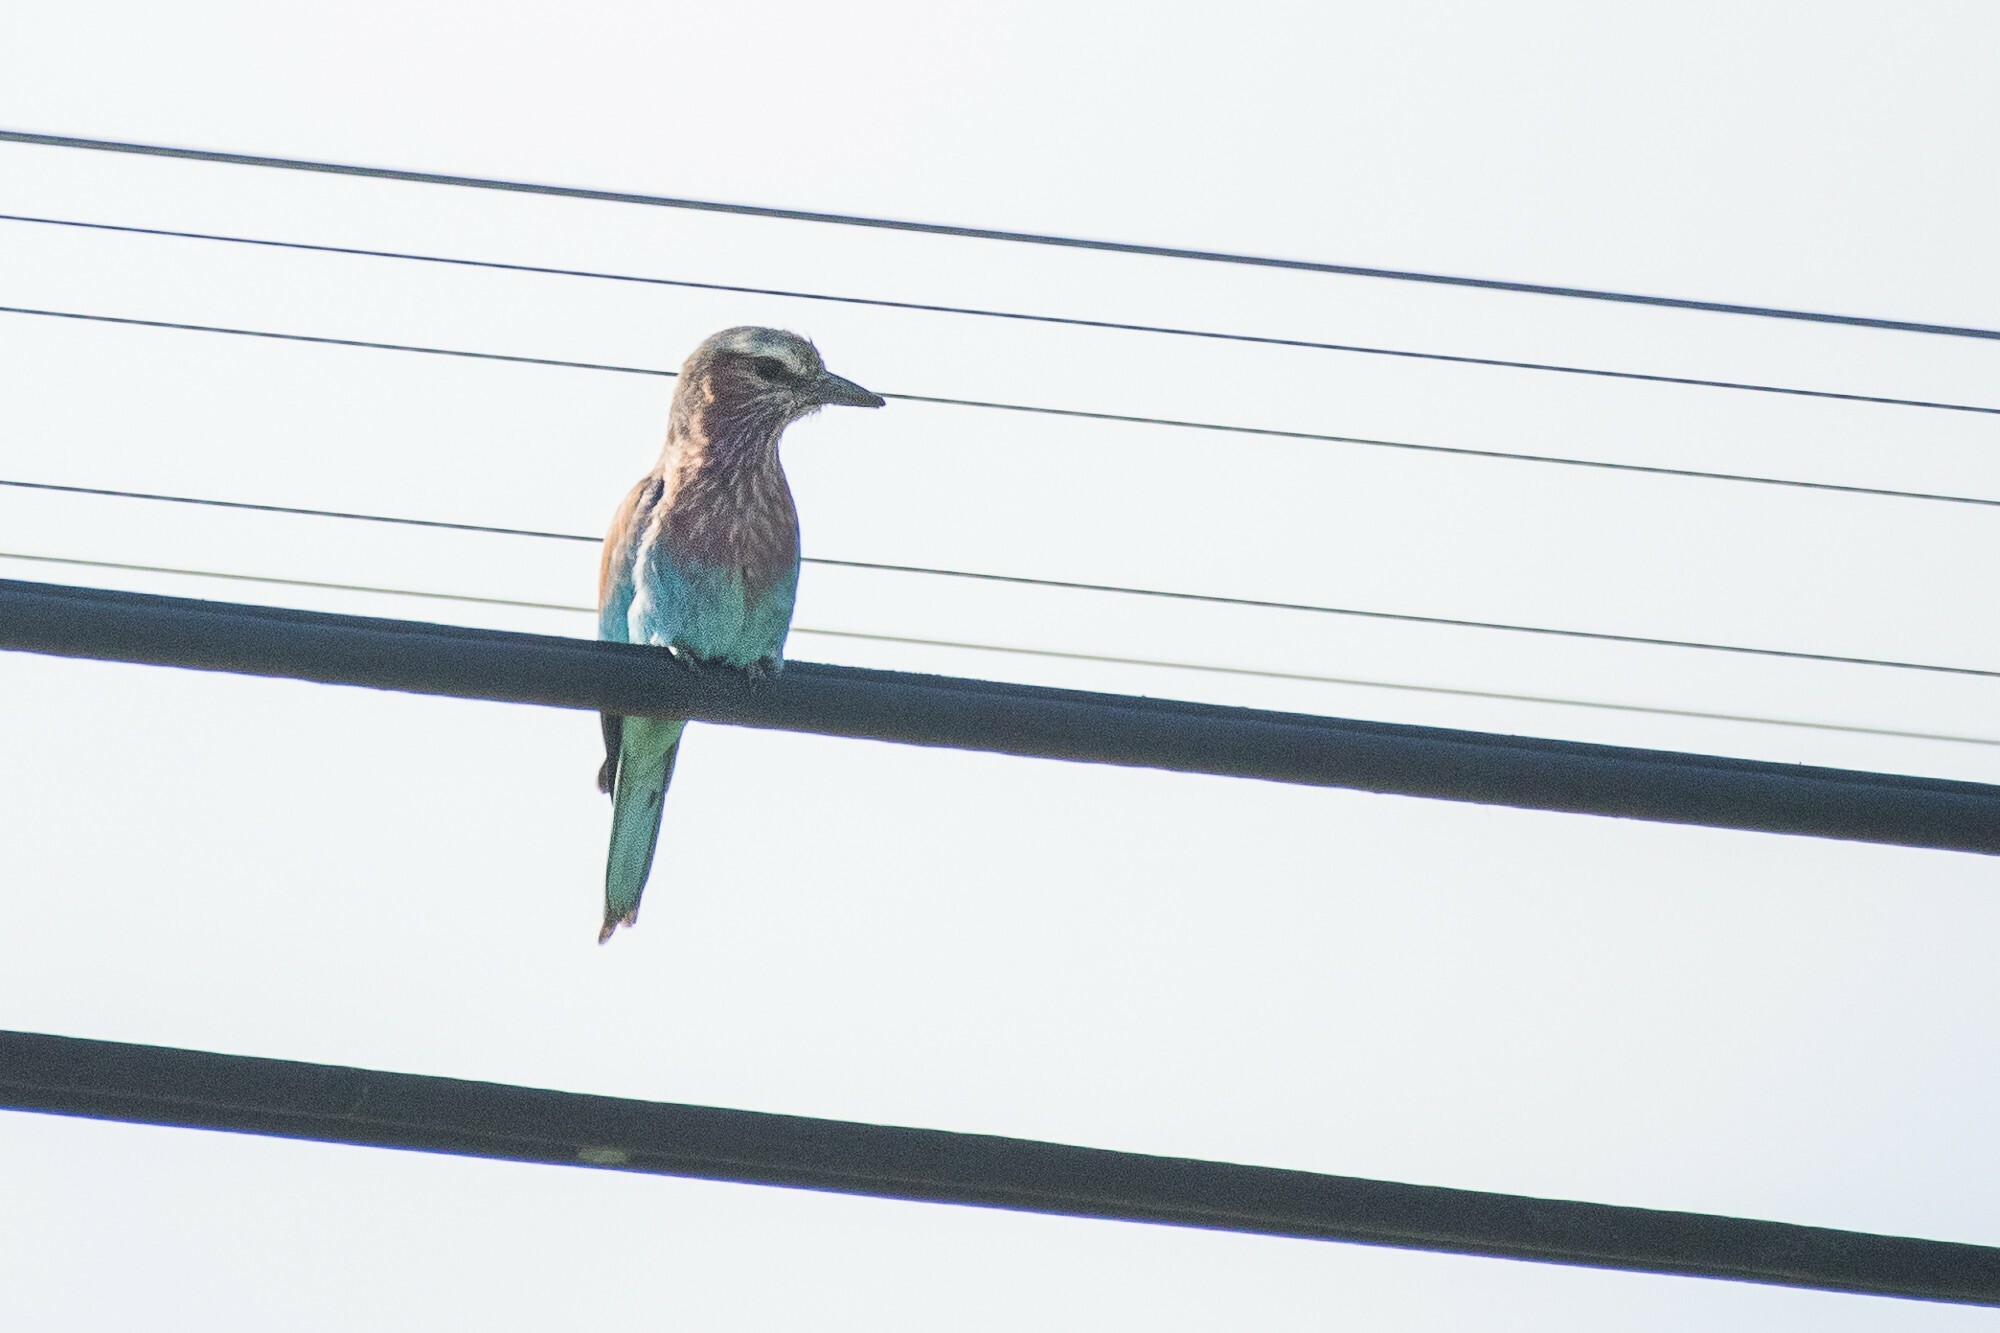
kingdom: Animalia
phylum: Chordata
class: Aves
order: Coraciiformes
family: Coraciidae
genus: Coracias
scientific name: Coracias caudatus
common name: Lilac-breasted roller
